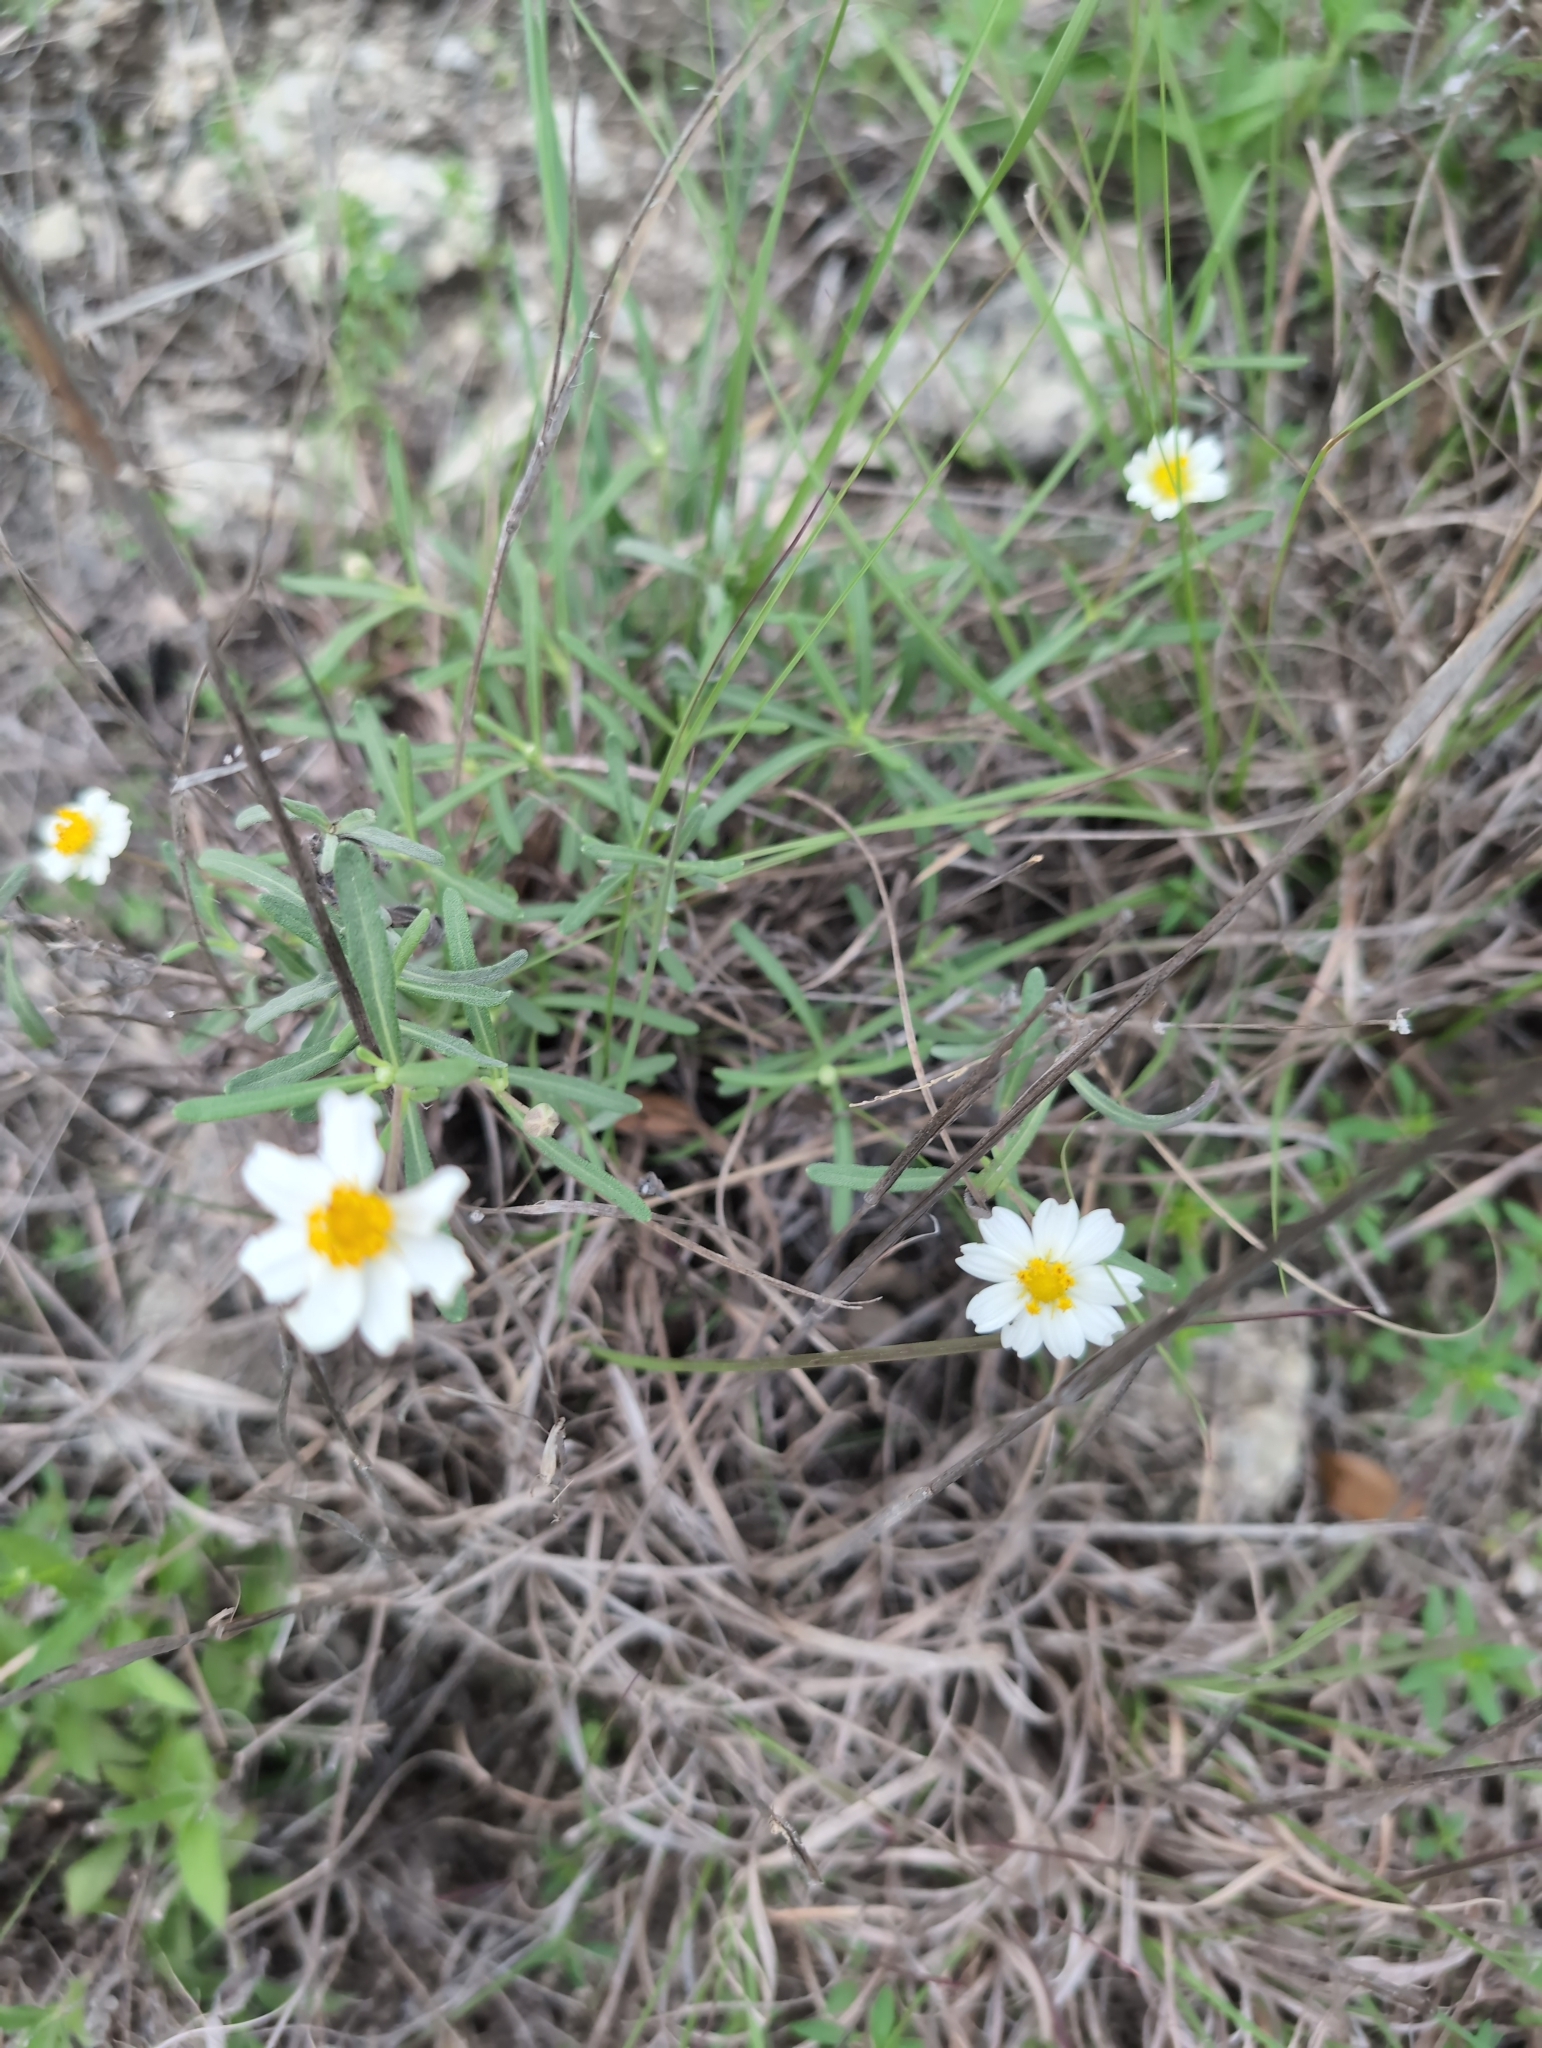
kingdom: Plantae
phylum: Tracheophyta
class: Magnoliopsida
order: Asterales
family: Asteraceae
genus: Melampodium
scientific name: Melampodium leucanthum
